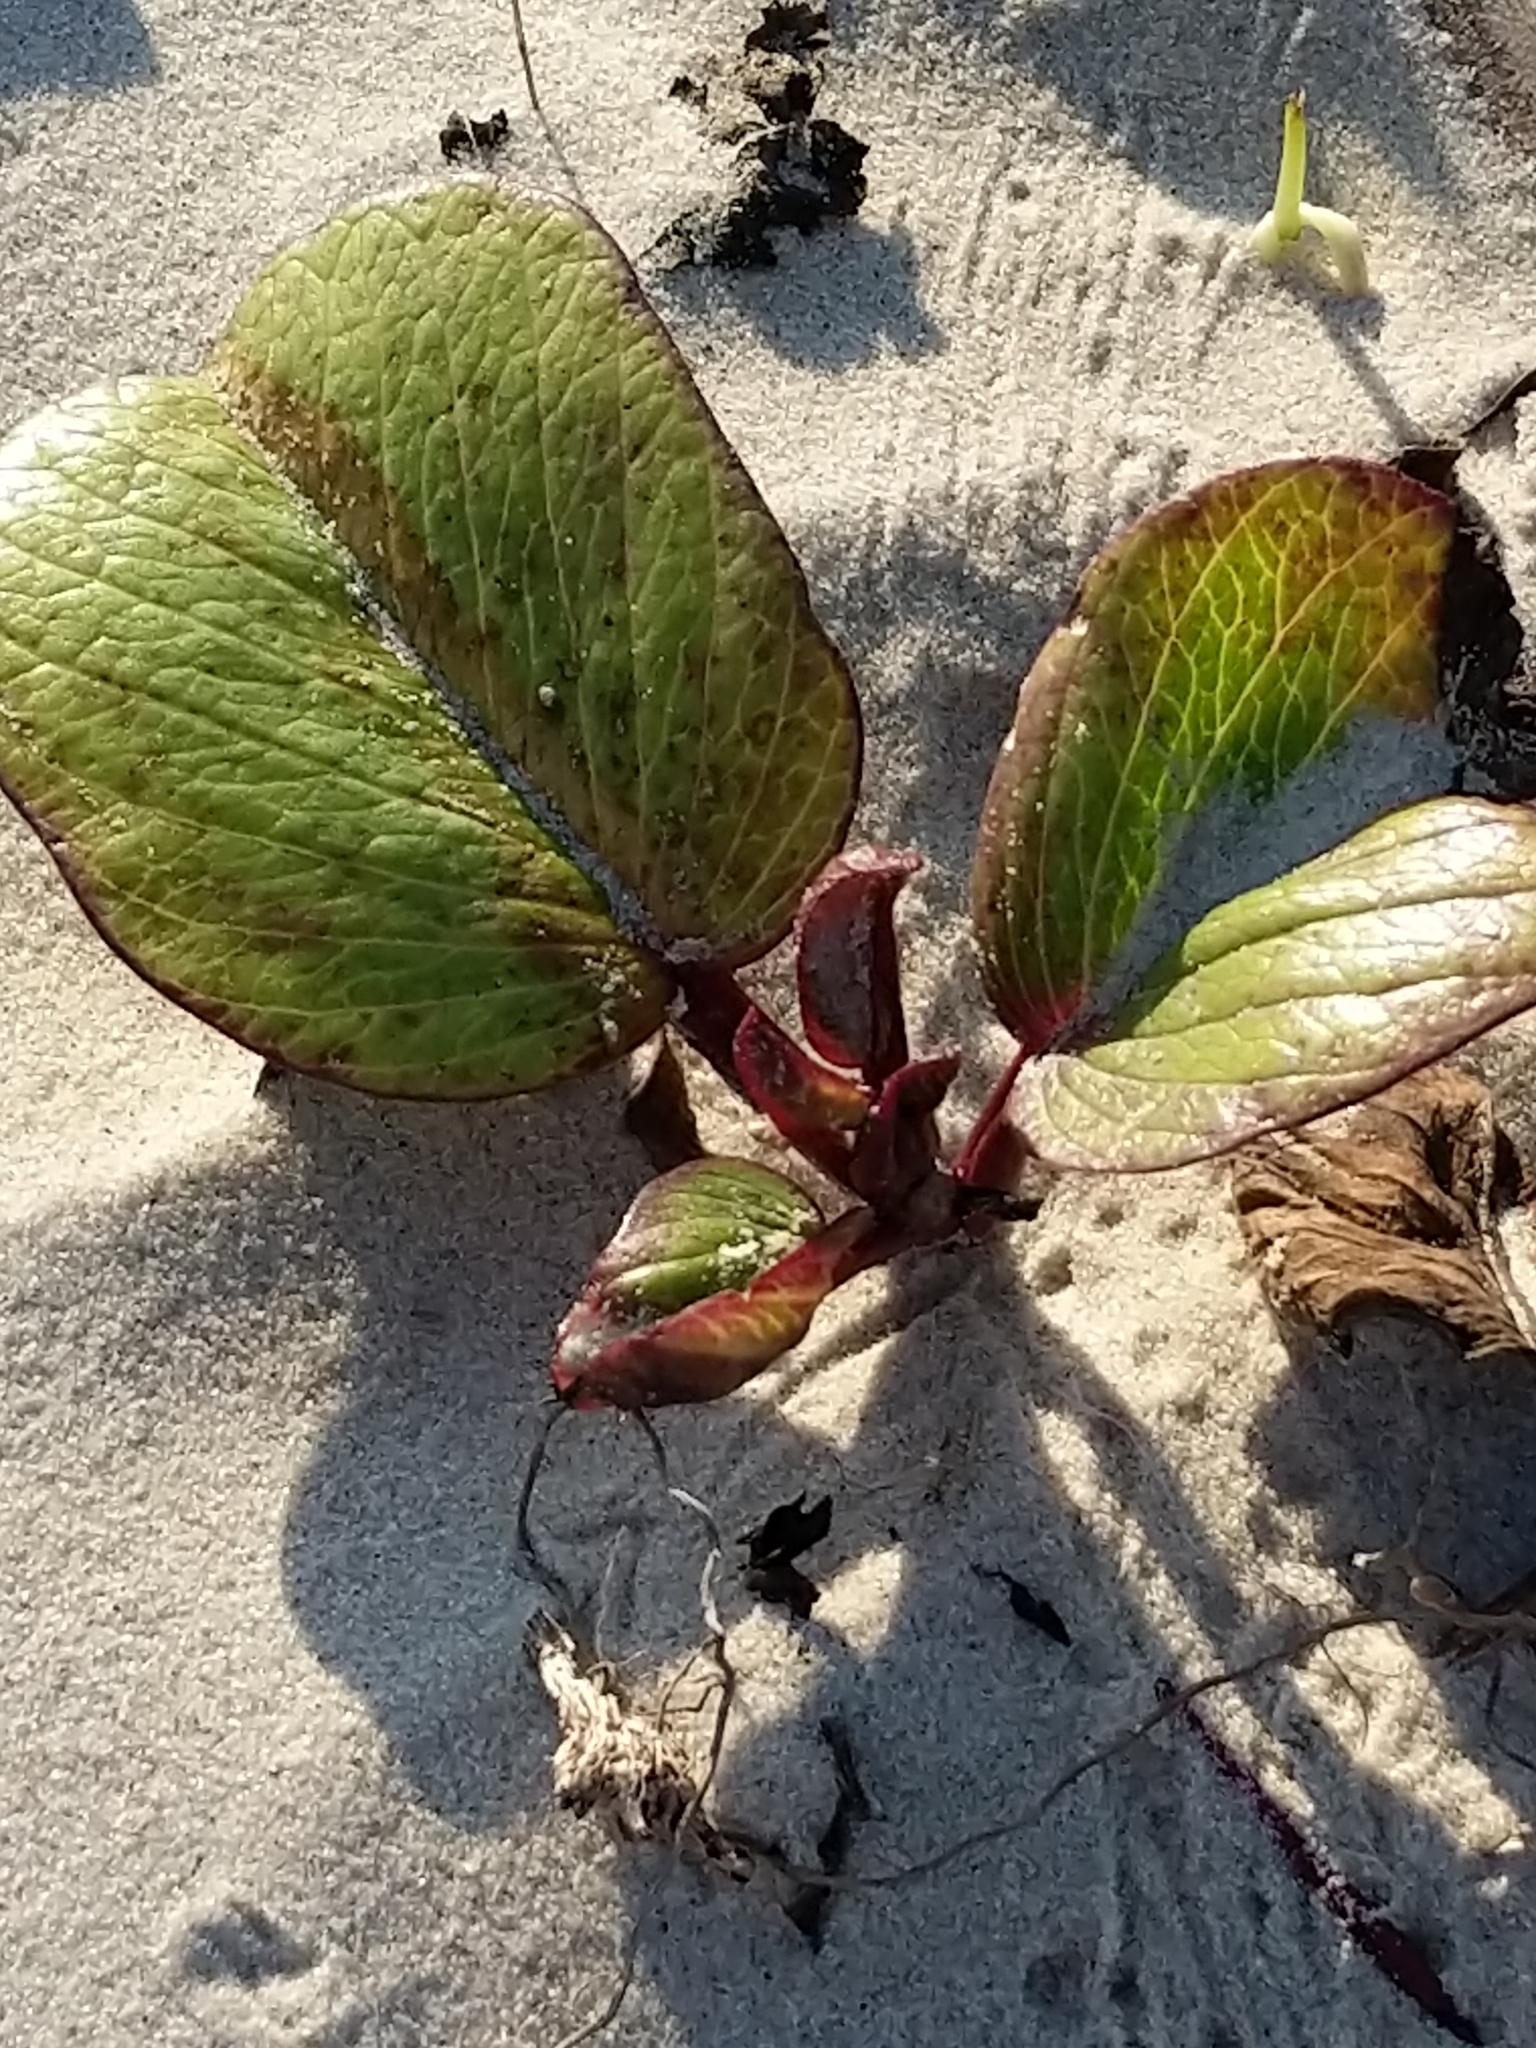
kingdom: Plantae
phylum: Tracheophyta
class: Magnoliopsida
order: Solanales
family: Convolvulaceae
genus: Ipomoea
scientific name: Ipomoea pes-caprae
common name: Beach morning glory
